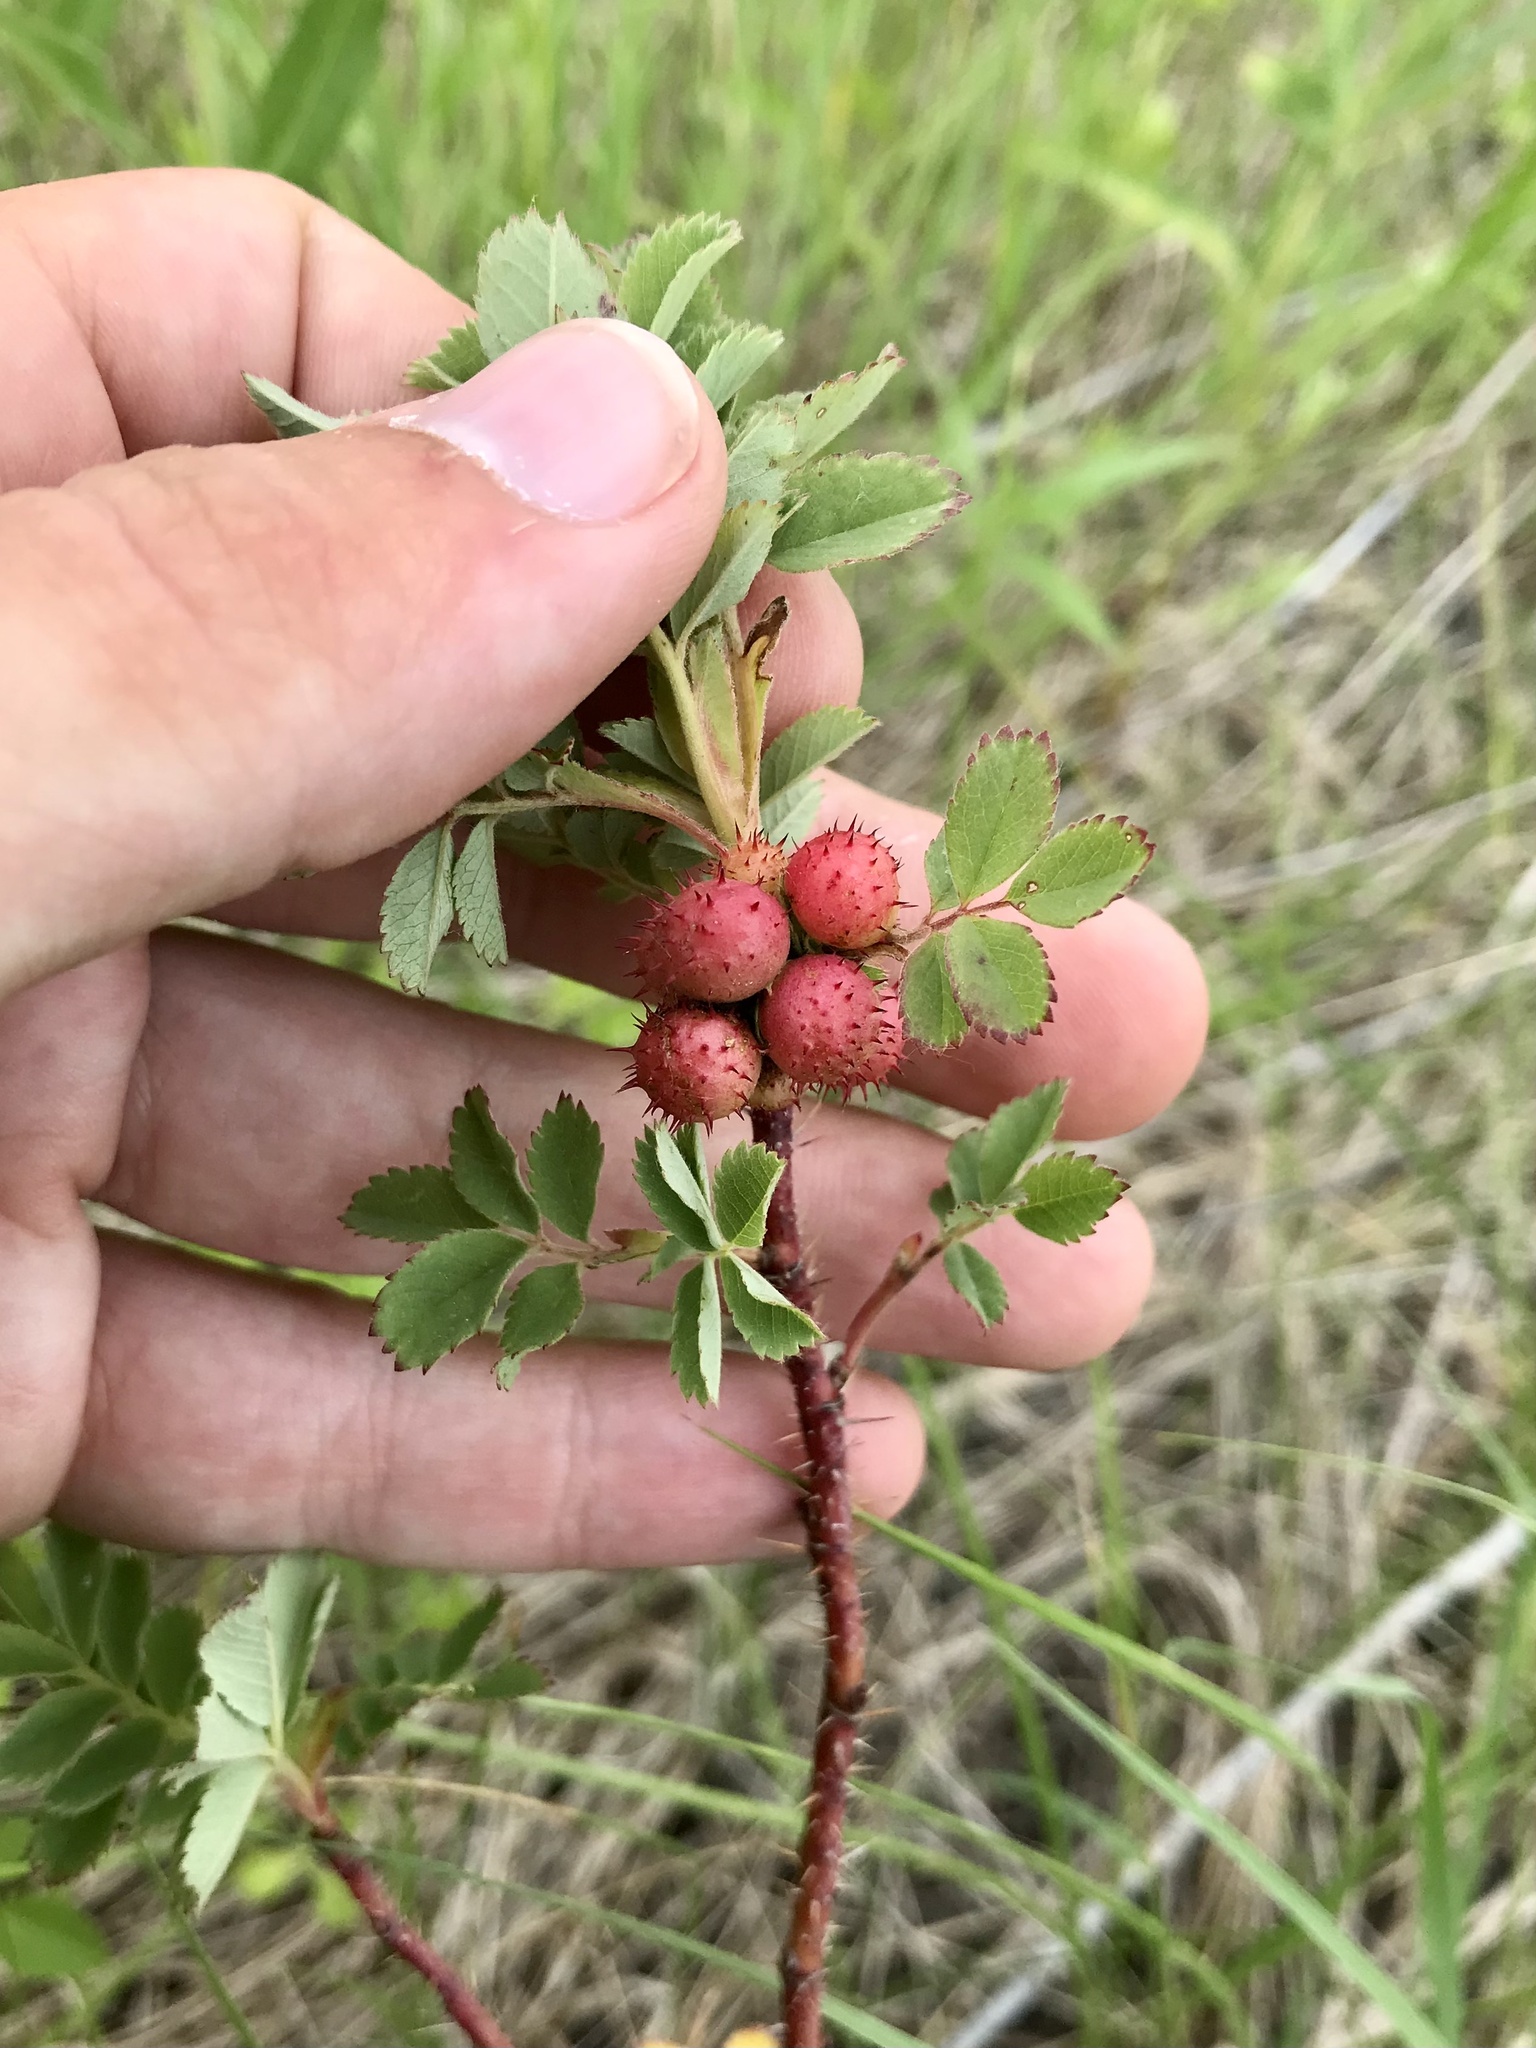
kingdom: Animalia
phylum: Arthropoda
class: Insecta
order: Hymenoptera
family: Cynipidae
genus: Diplolepis
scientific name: Diplolepis polita
